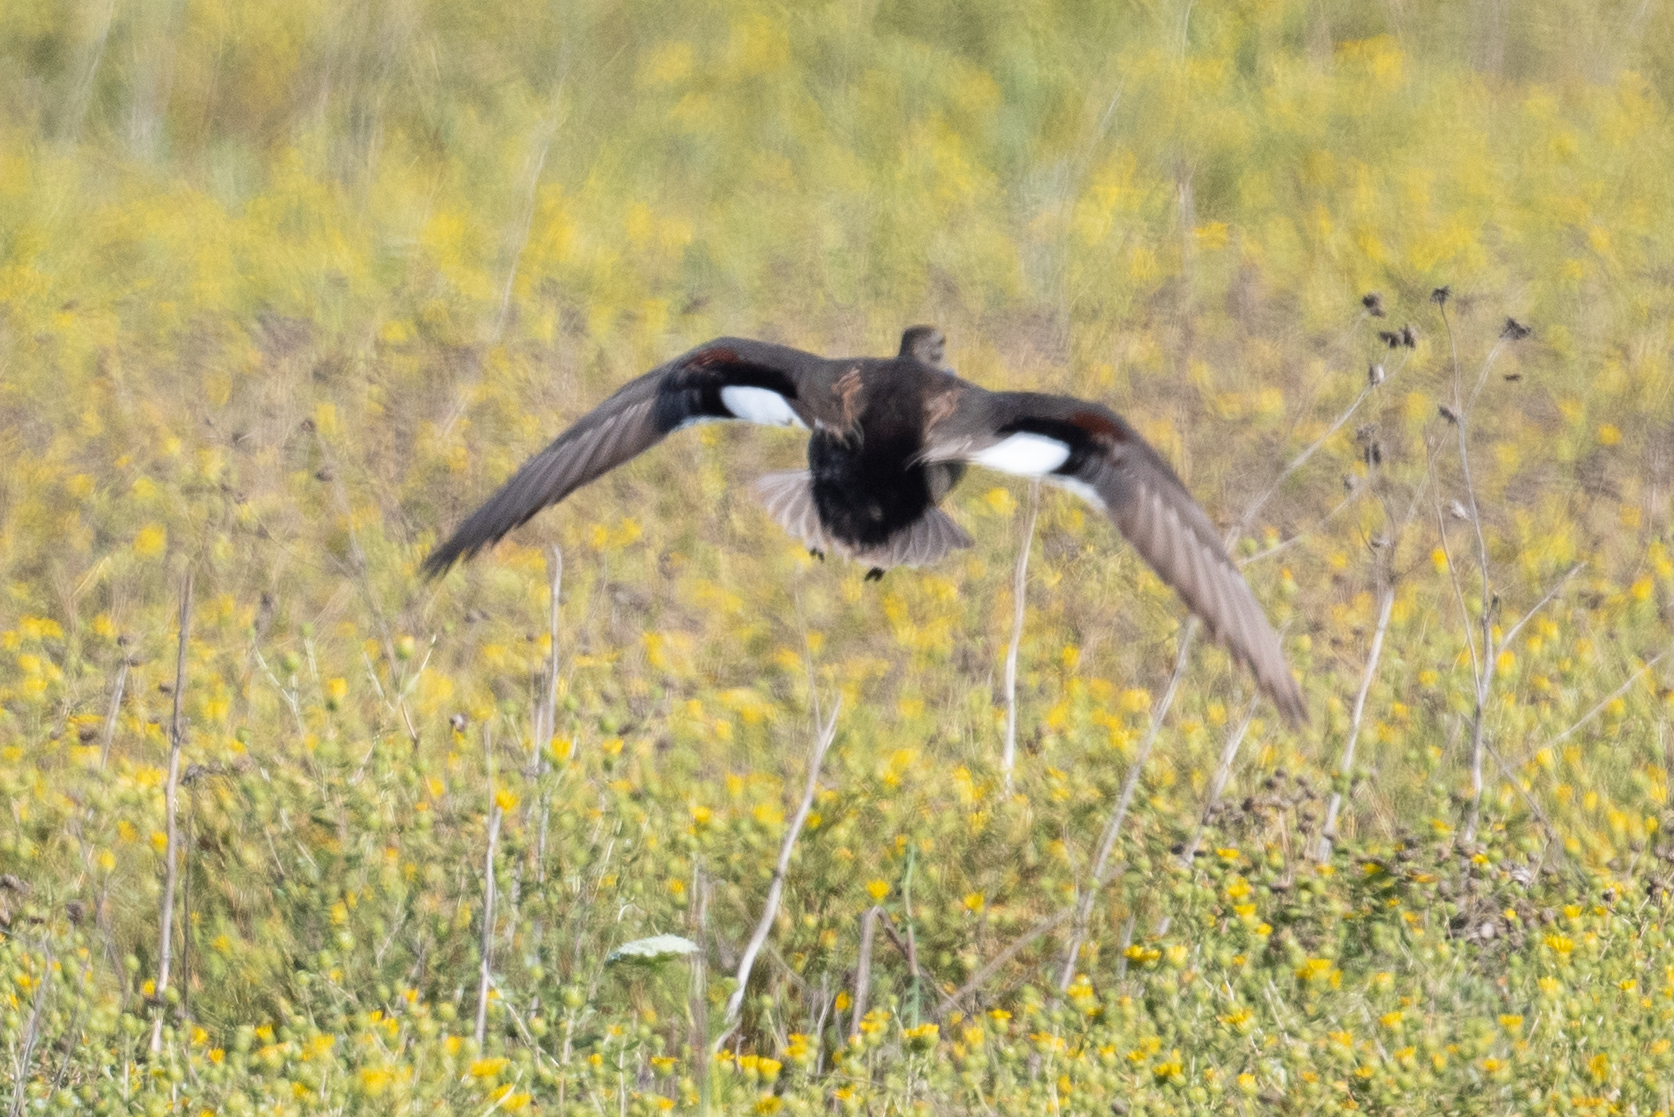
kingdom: Animalia
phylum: Chordata
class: Aves
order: Anseriformes
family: Anatidae
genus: Mareca
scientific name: Mareca strepera
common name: Gadwall
